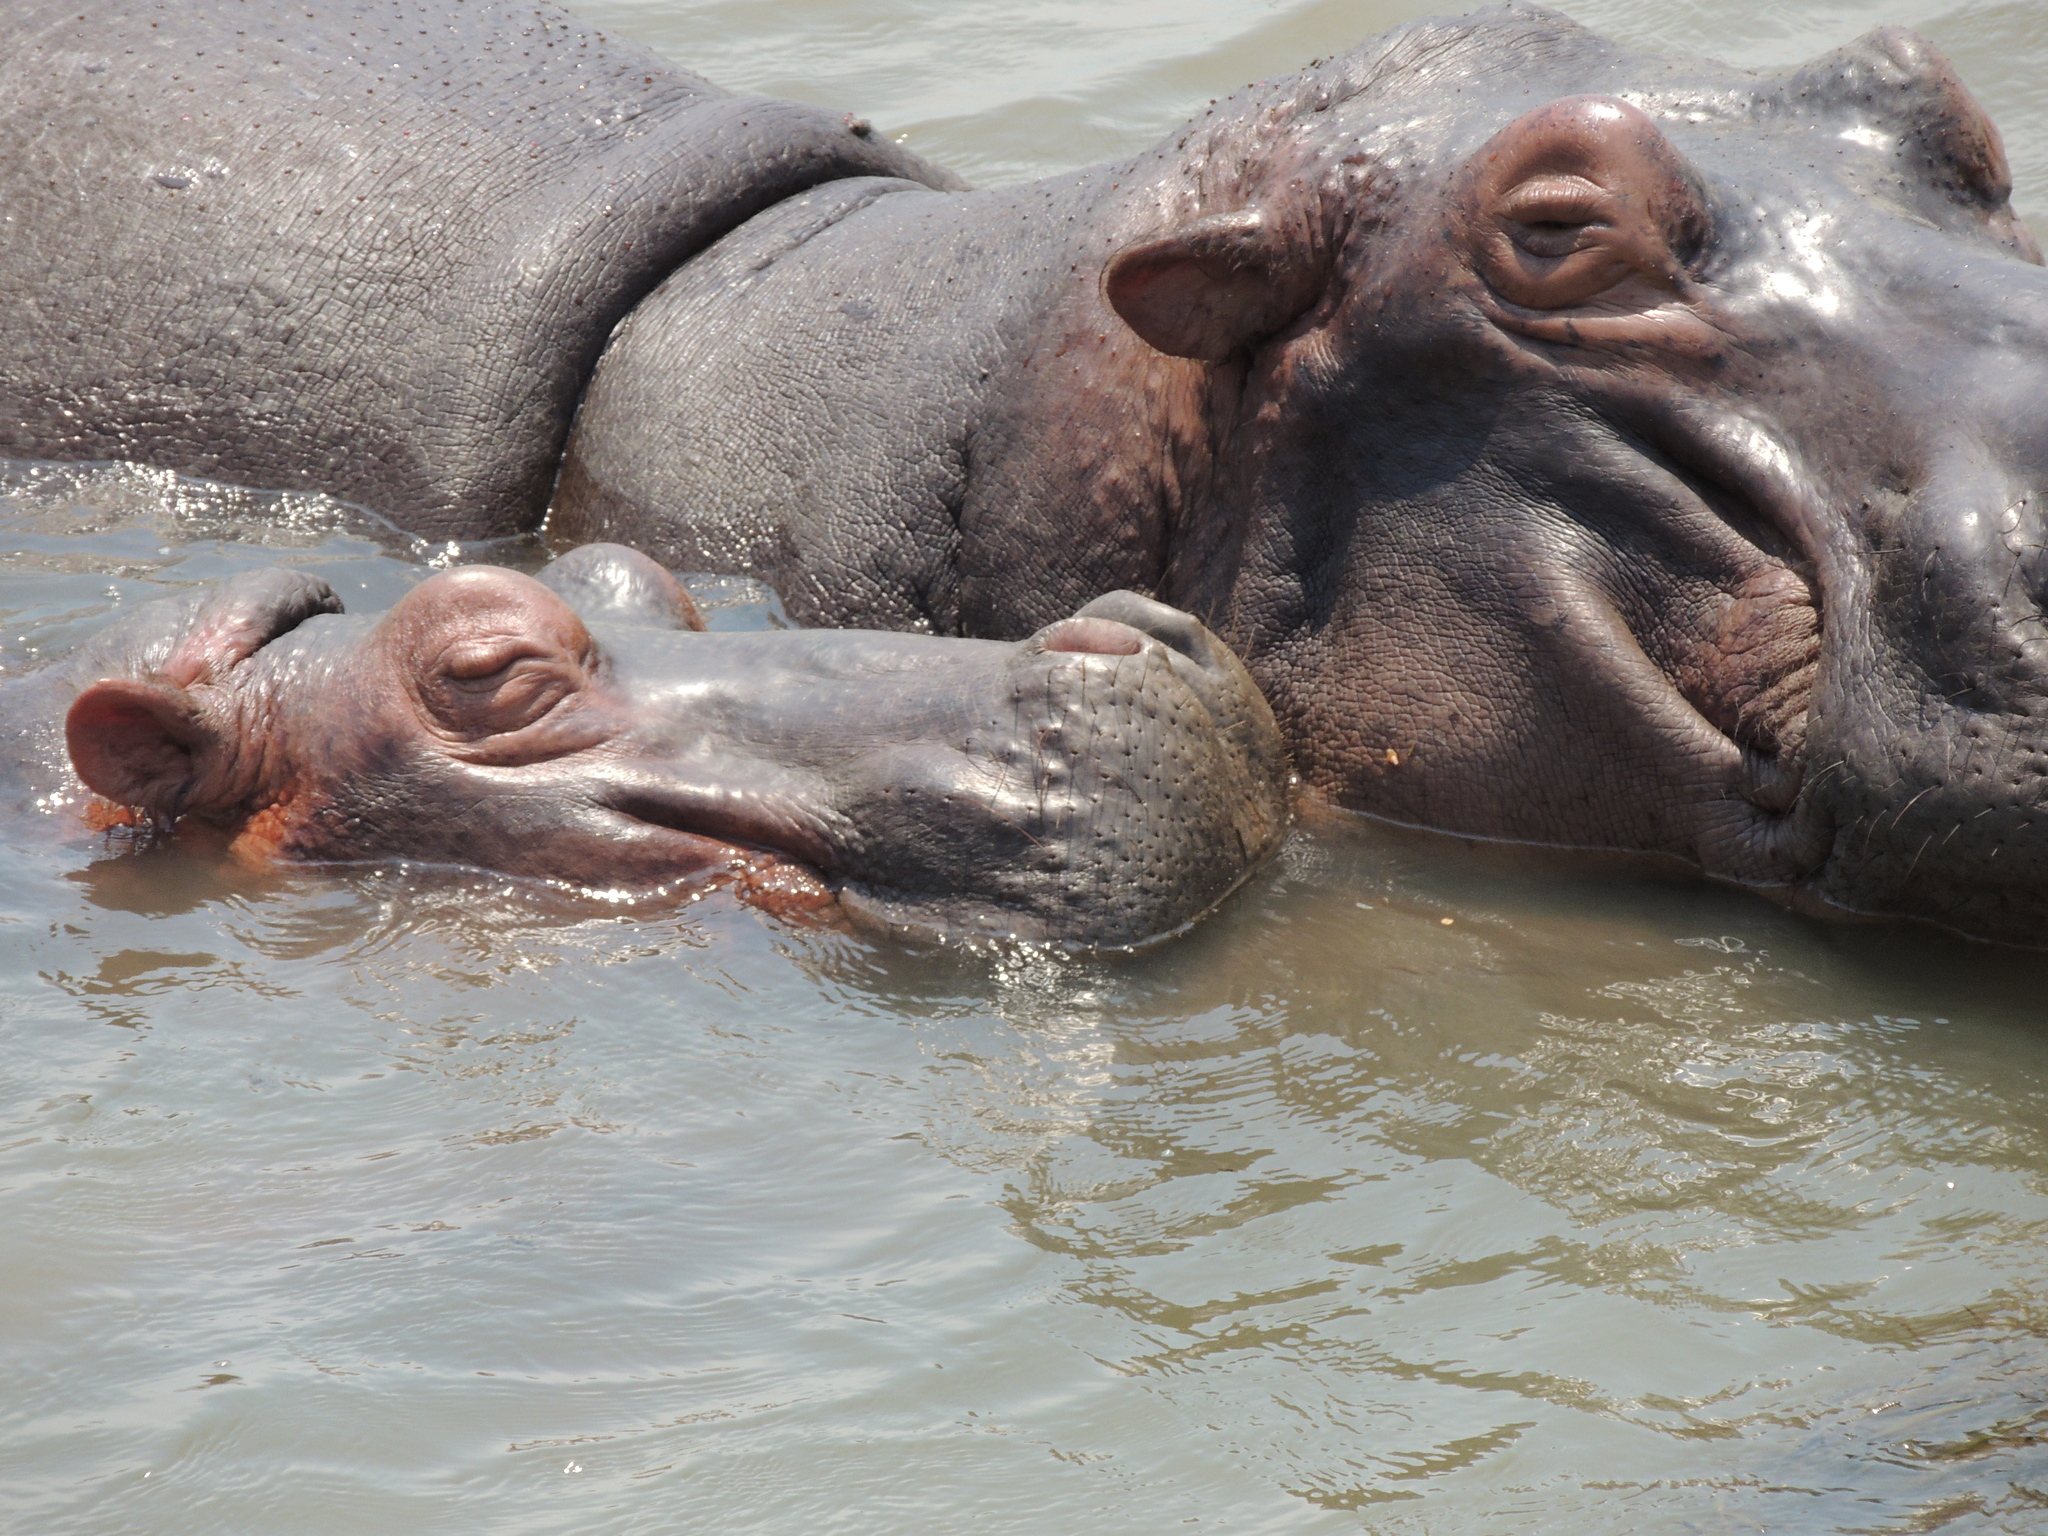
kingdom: Animalia
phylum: Chordata
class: Mammalia
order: Artiodactyla
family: Hippopotamidae
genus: Hippopotamus
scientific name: Hippopotamus amphibius
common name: Common hippopotamus
